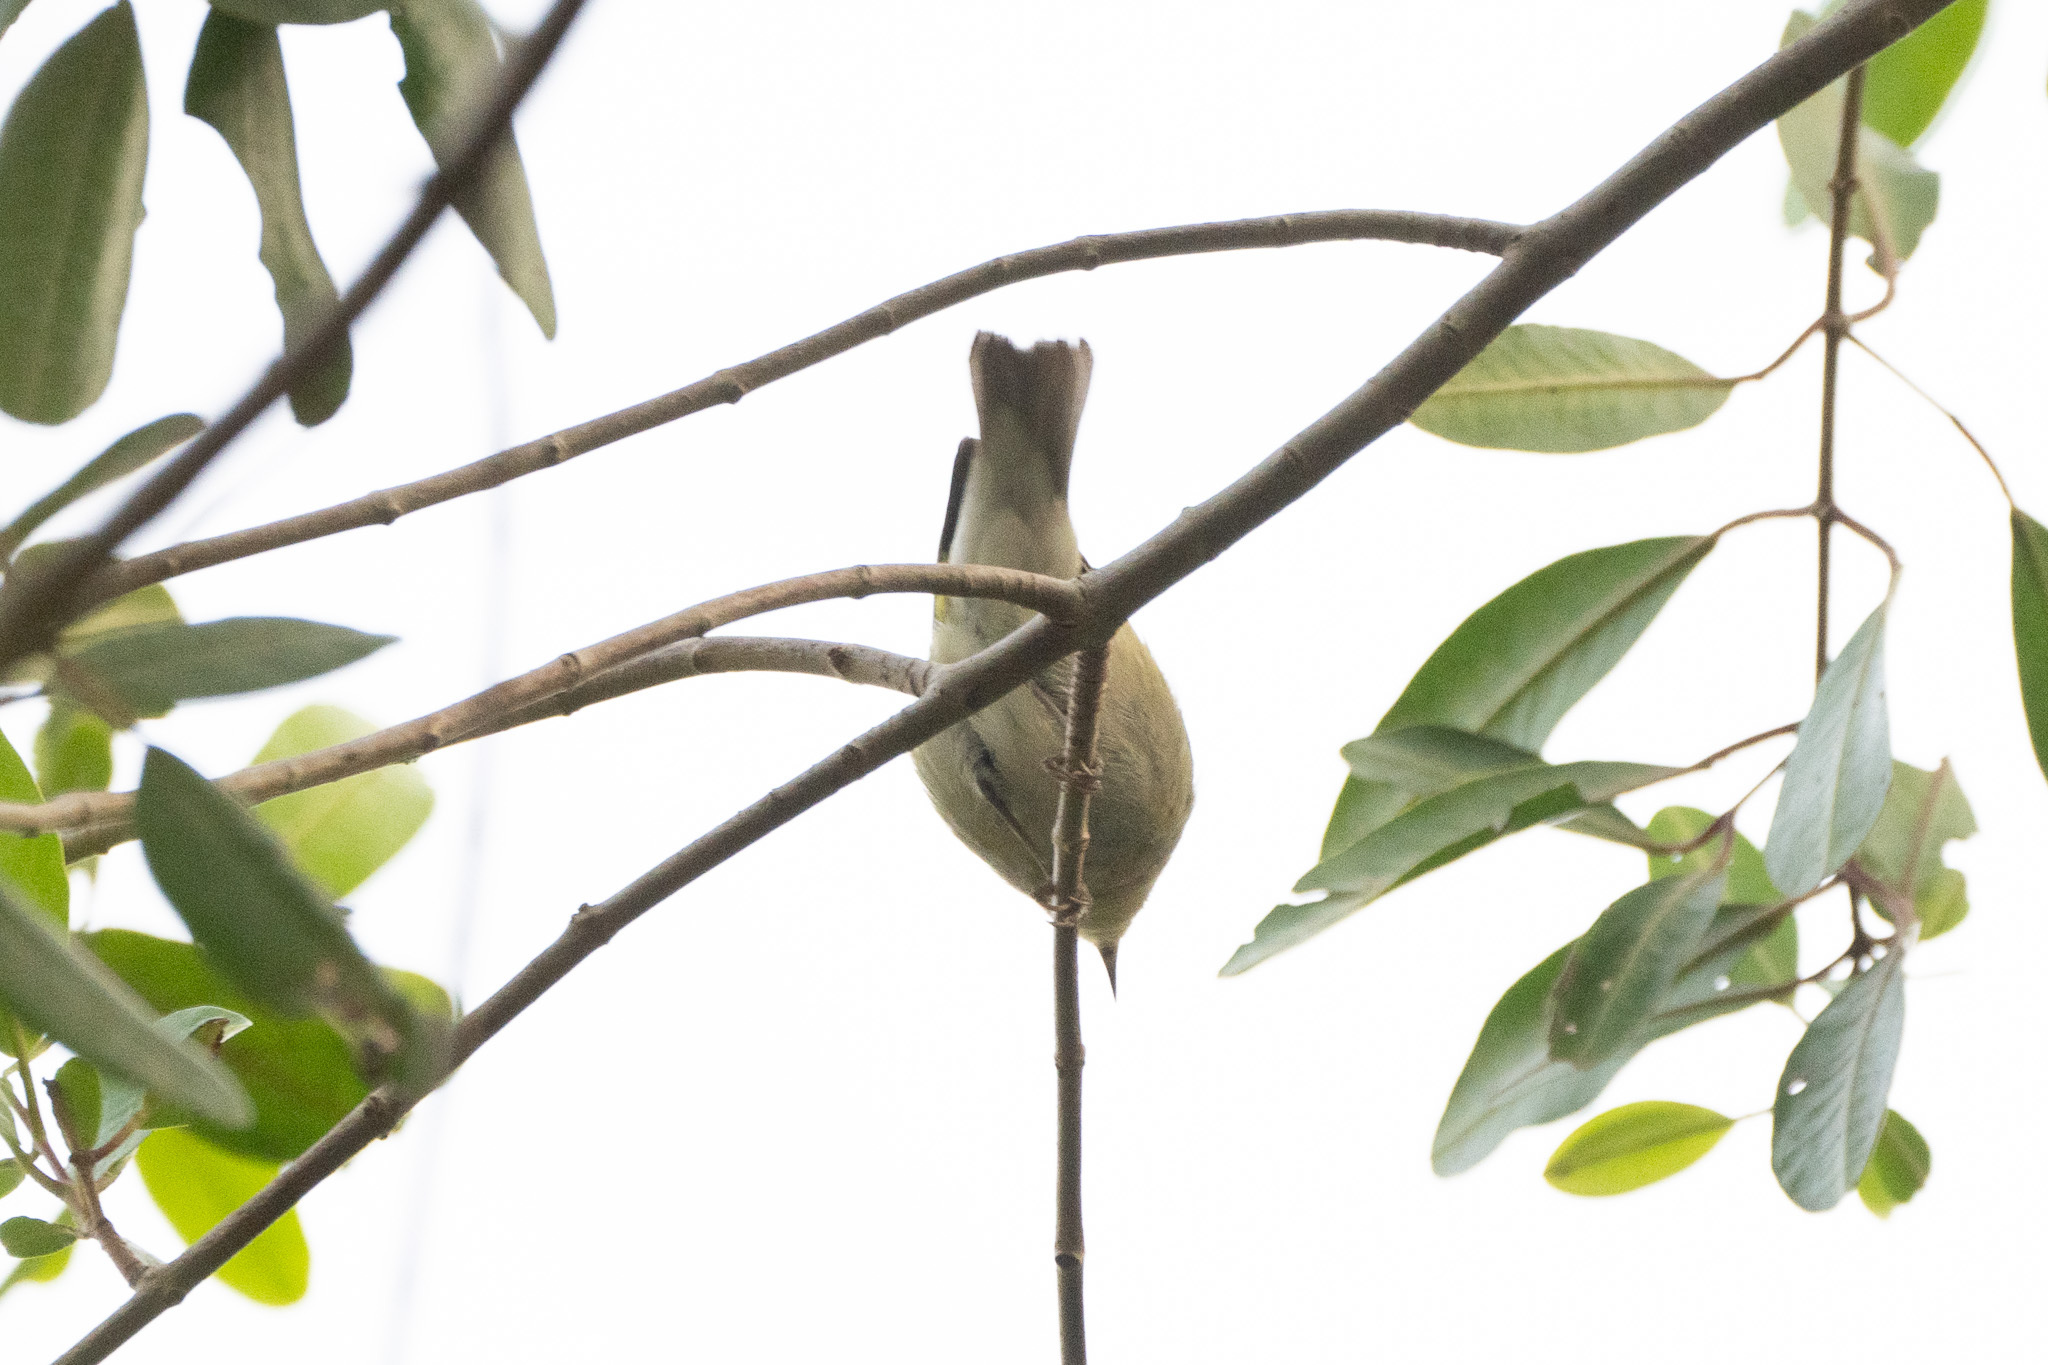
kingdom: Animalia
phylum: Chordata
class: Aves
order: Passeriformes
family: Parulidae
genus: Leiothlypis
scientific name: Leiothlypis peregrina
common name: Tennessee warbler
